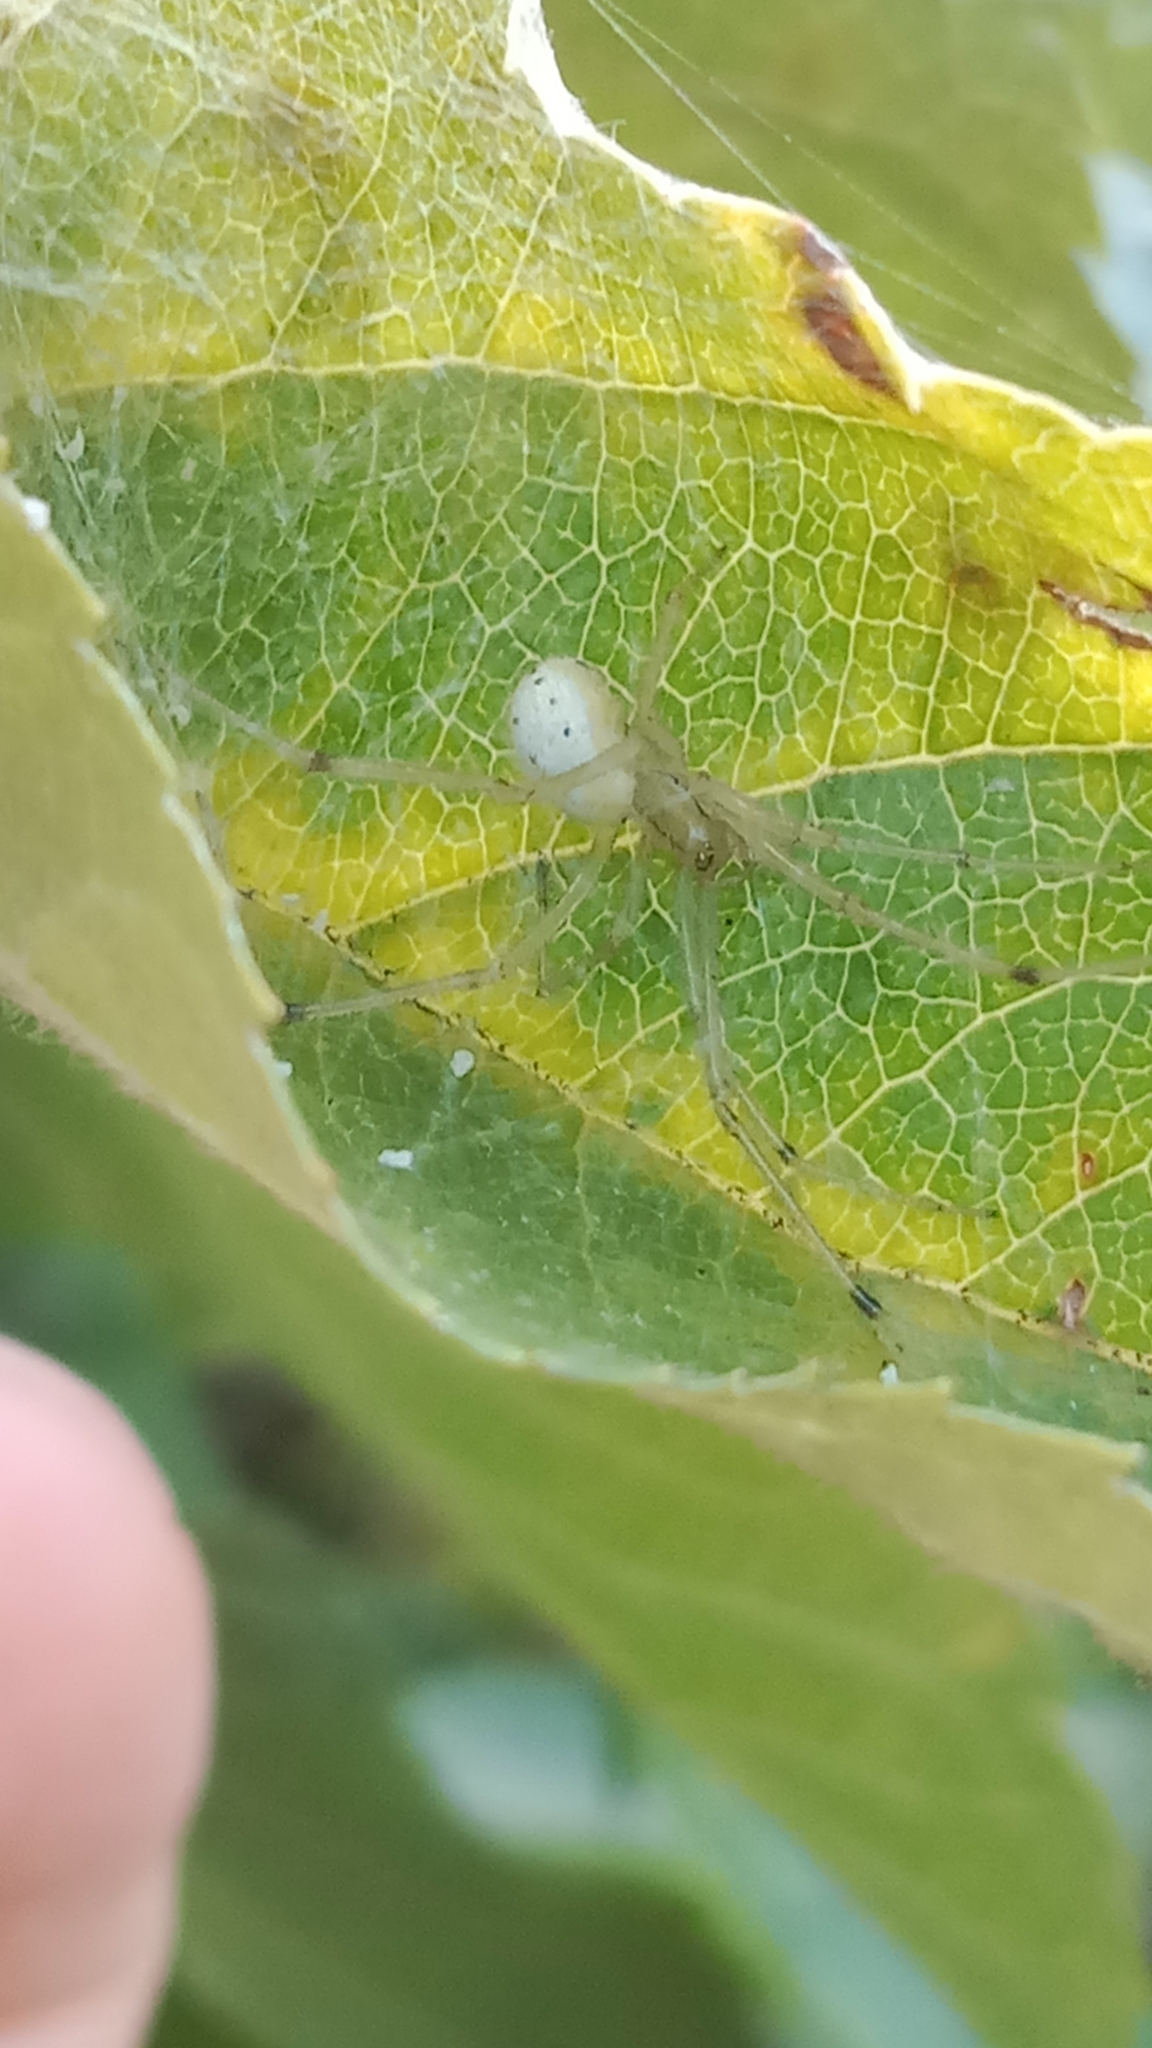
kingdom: Animalia
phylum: Arthropoda
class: Arachnida
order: Araneae
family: Theridiidae
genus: Enoplognatha
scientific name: Enoplognatha ovata
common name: Common candy-striped spider
